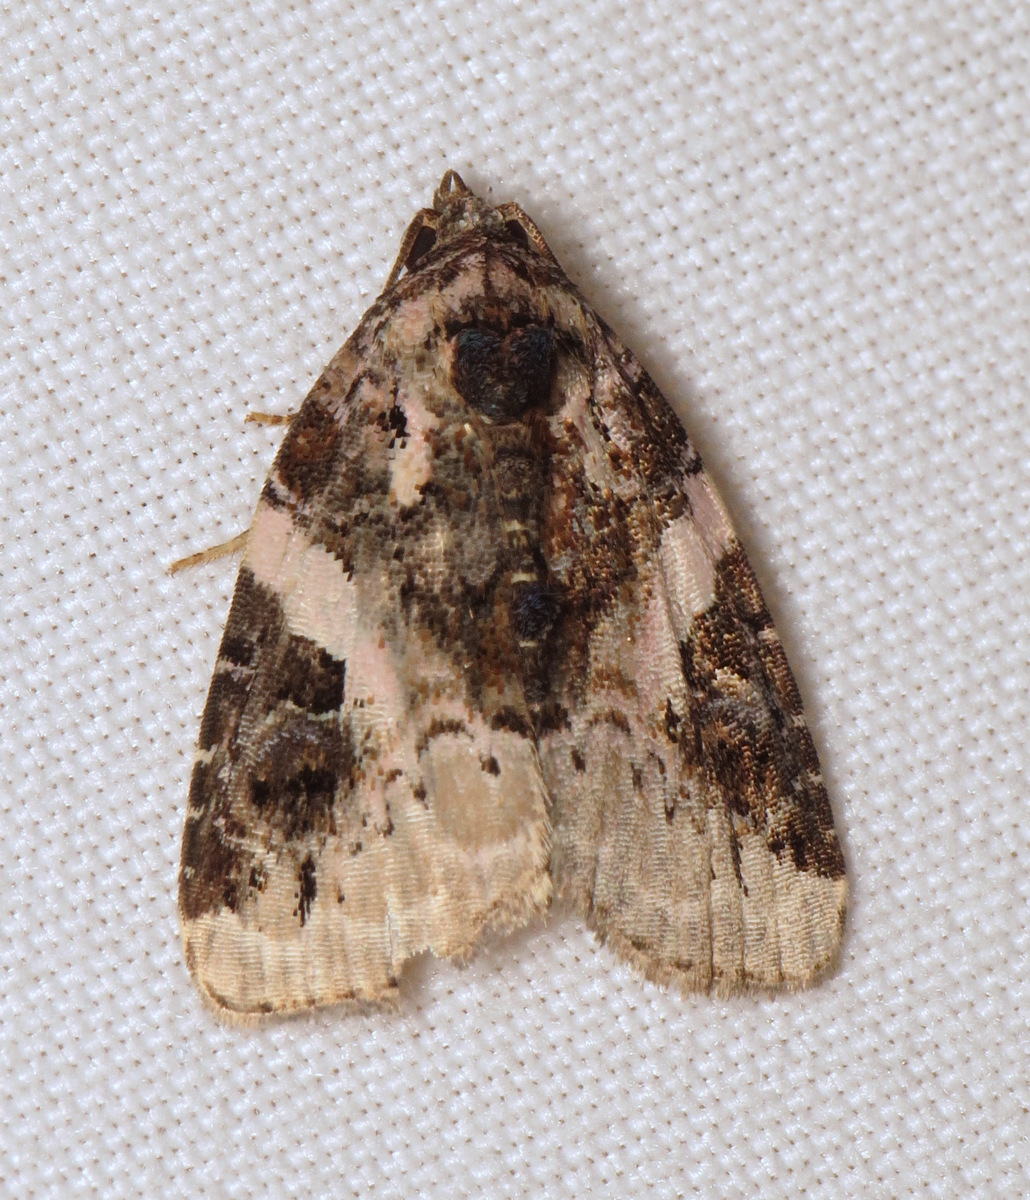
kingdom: Animalia
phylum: Arthropoda
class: Insecta
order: Lepidoptera
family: Noctuidae
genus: Pseudeustrotia
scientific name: Pseudeustrotia carneola
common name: Pink-barred lithacodia moth
